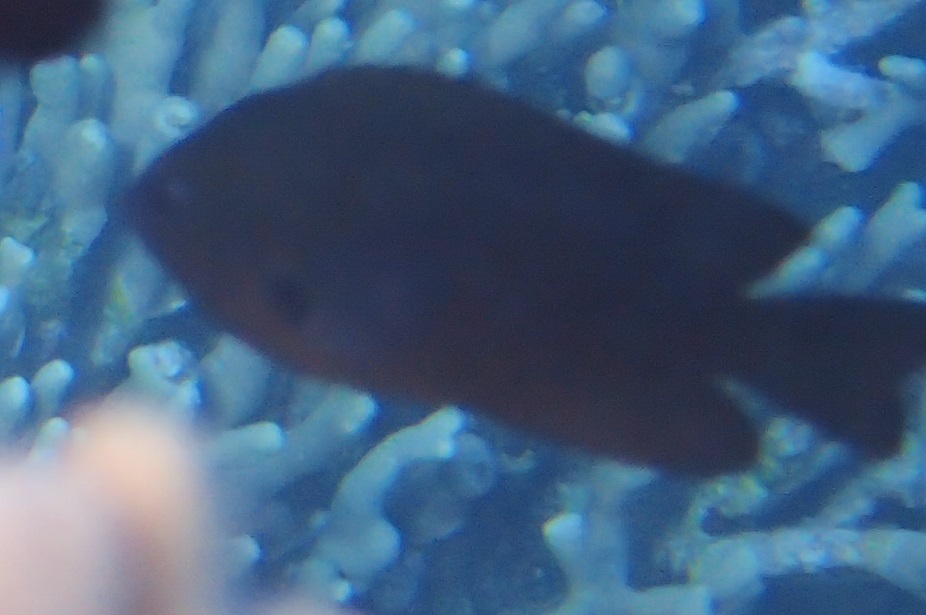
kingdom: Animalia
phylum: Chordata
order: Perciformes
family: Pomacentridae
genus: Pomacentrus
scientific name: Pomacentrus brachialis
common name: Charcoal damsel
